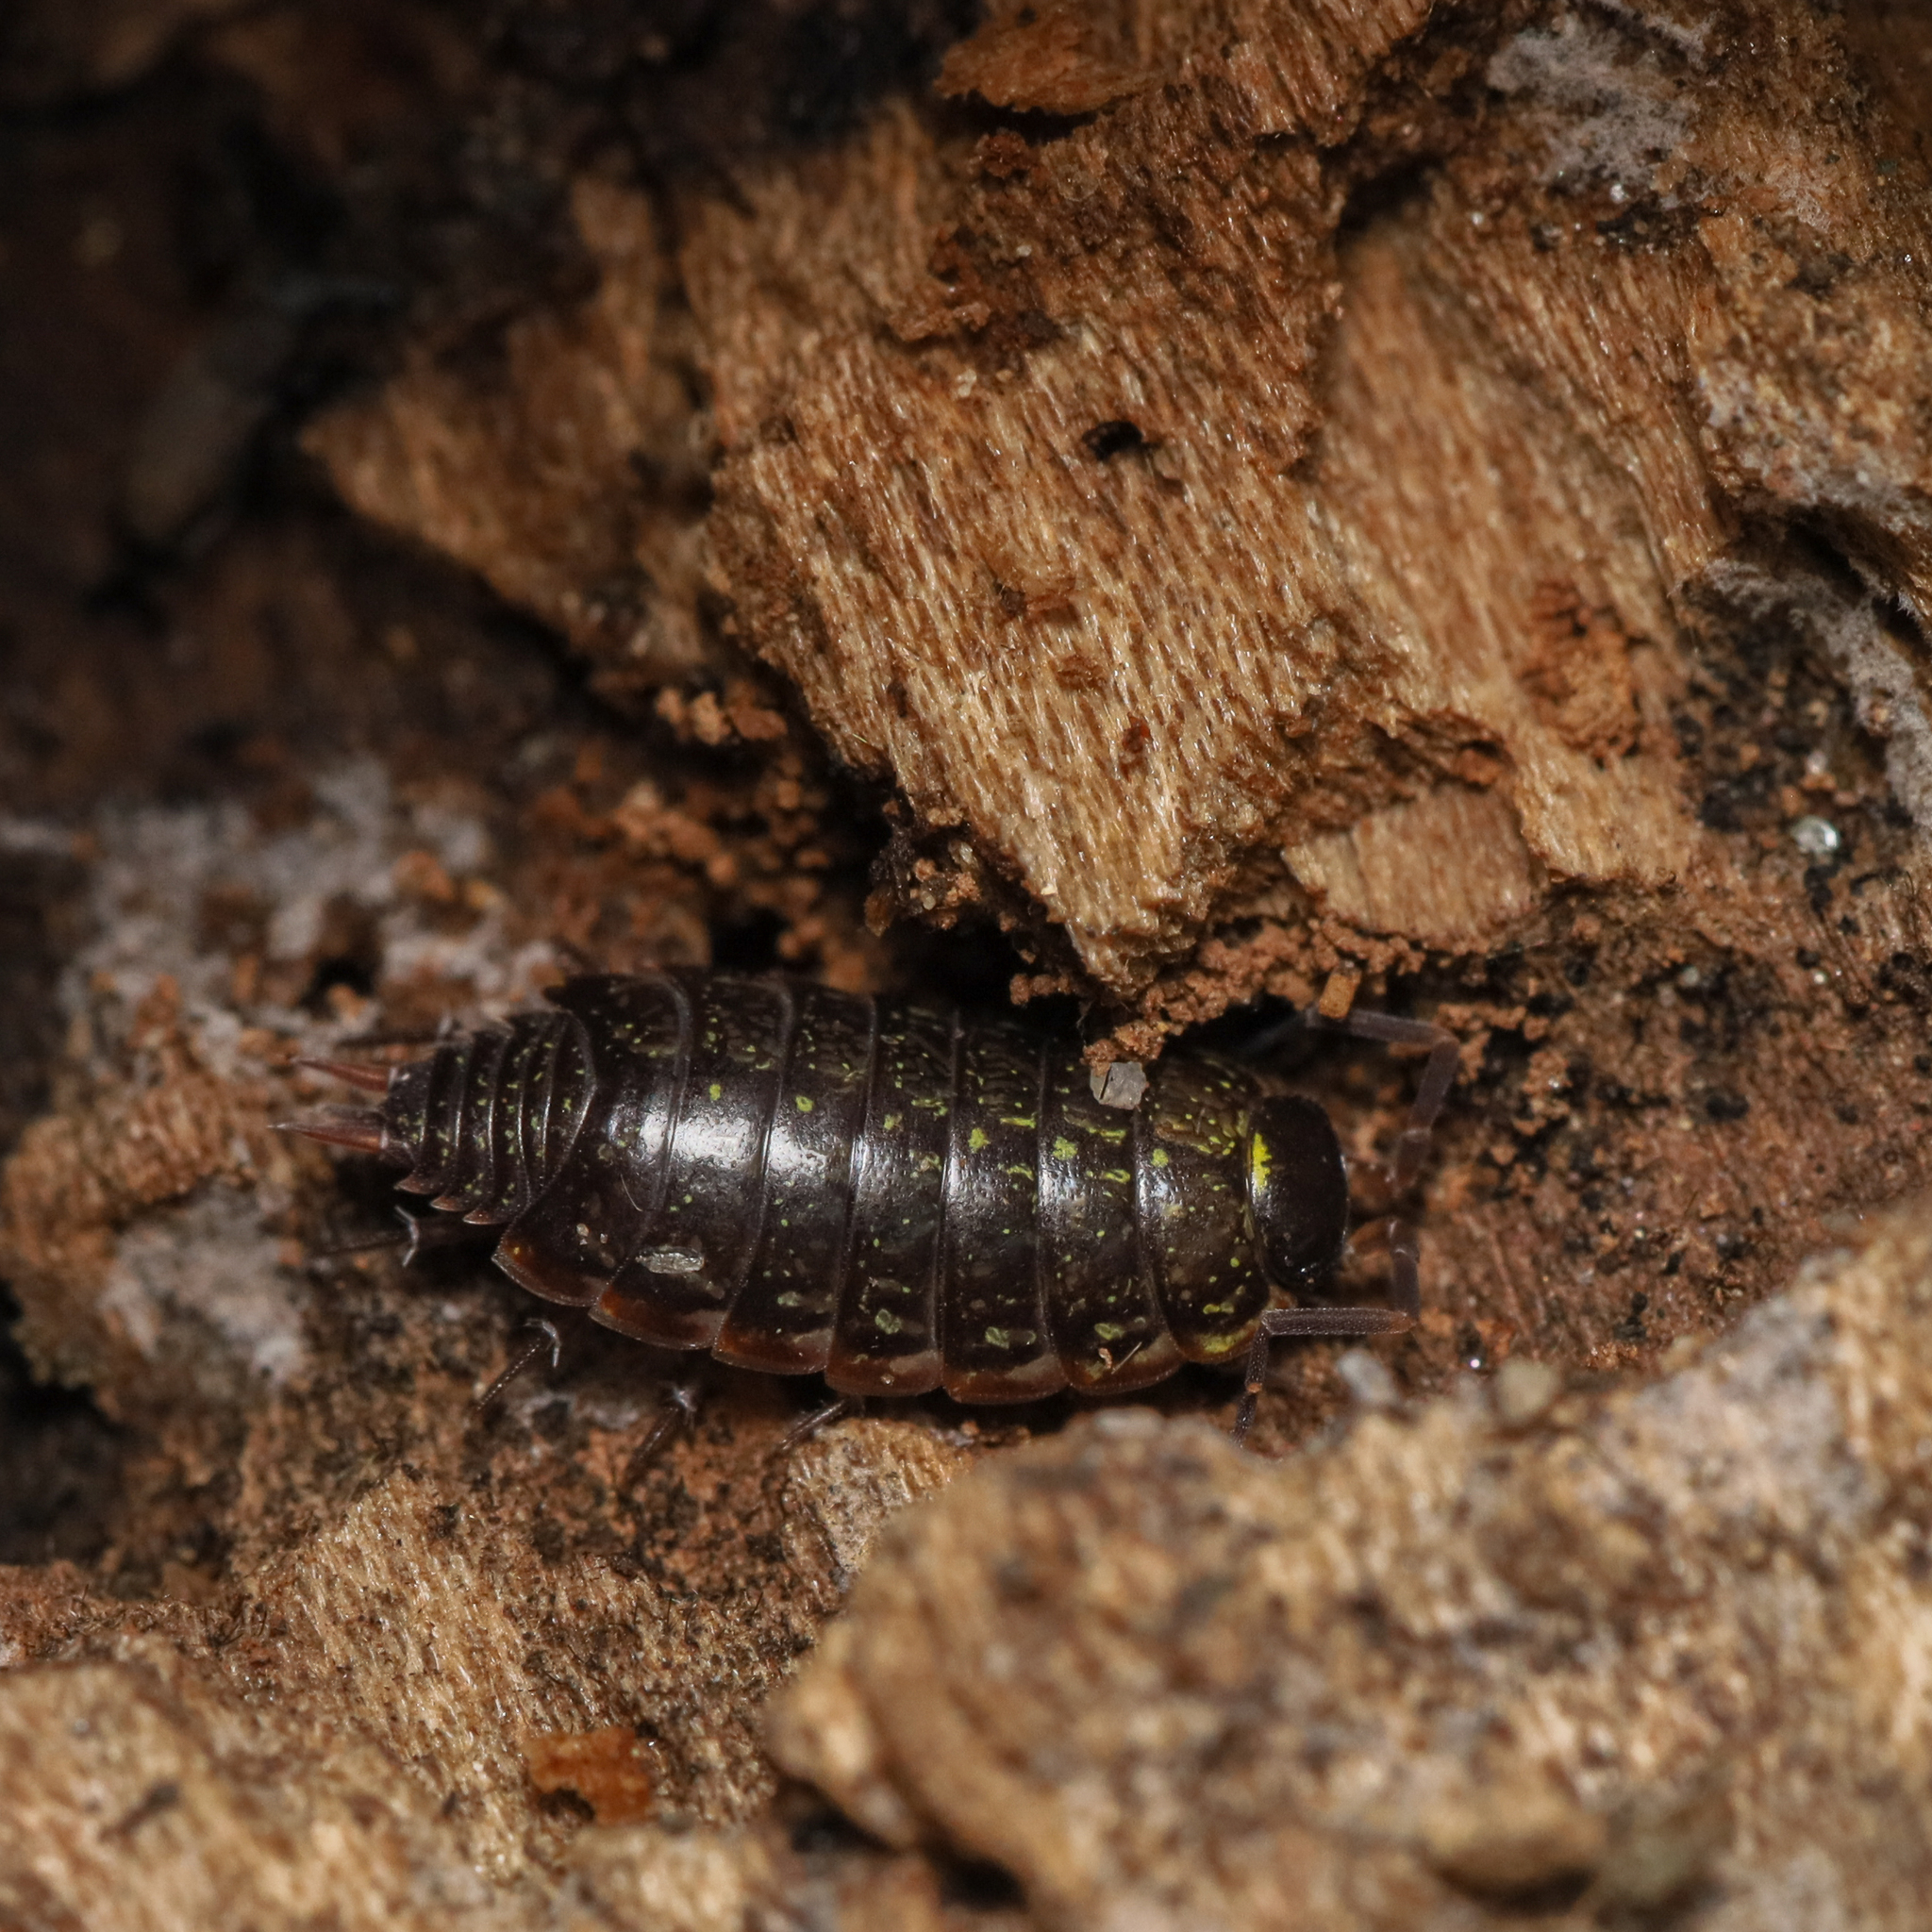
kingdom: Animalia
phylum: Arthropoda
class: Malacostraca
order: Isopoda
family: Philosciidae
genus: Philoscia
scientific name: Philoscia muscorum
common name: Common striped woodlouse
